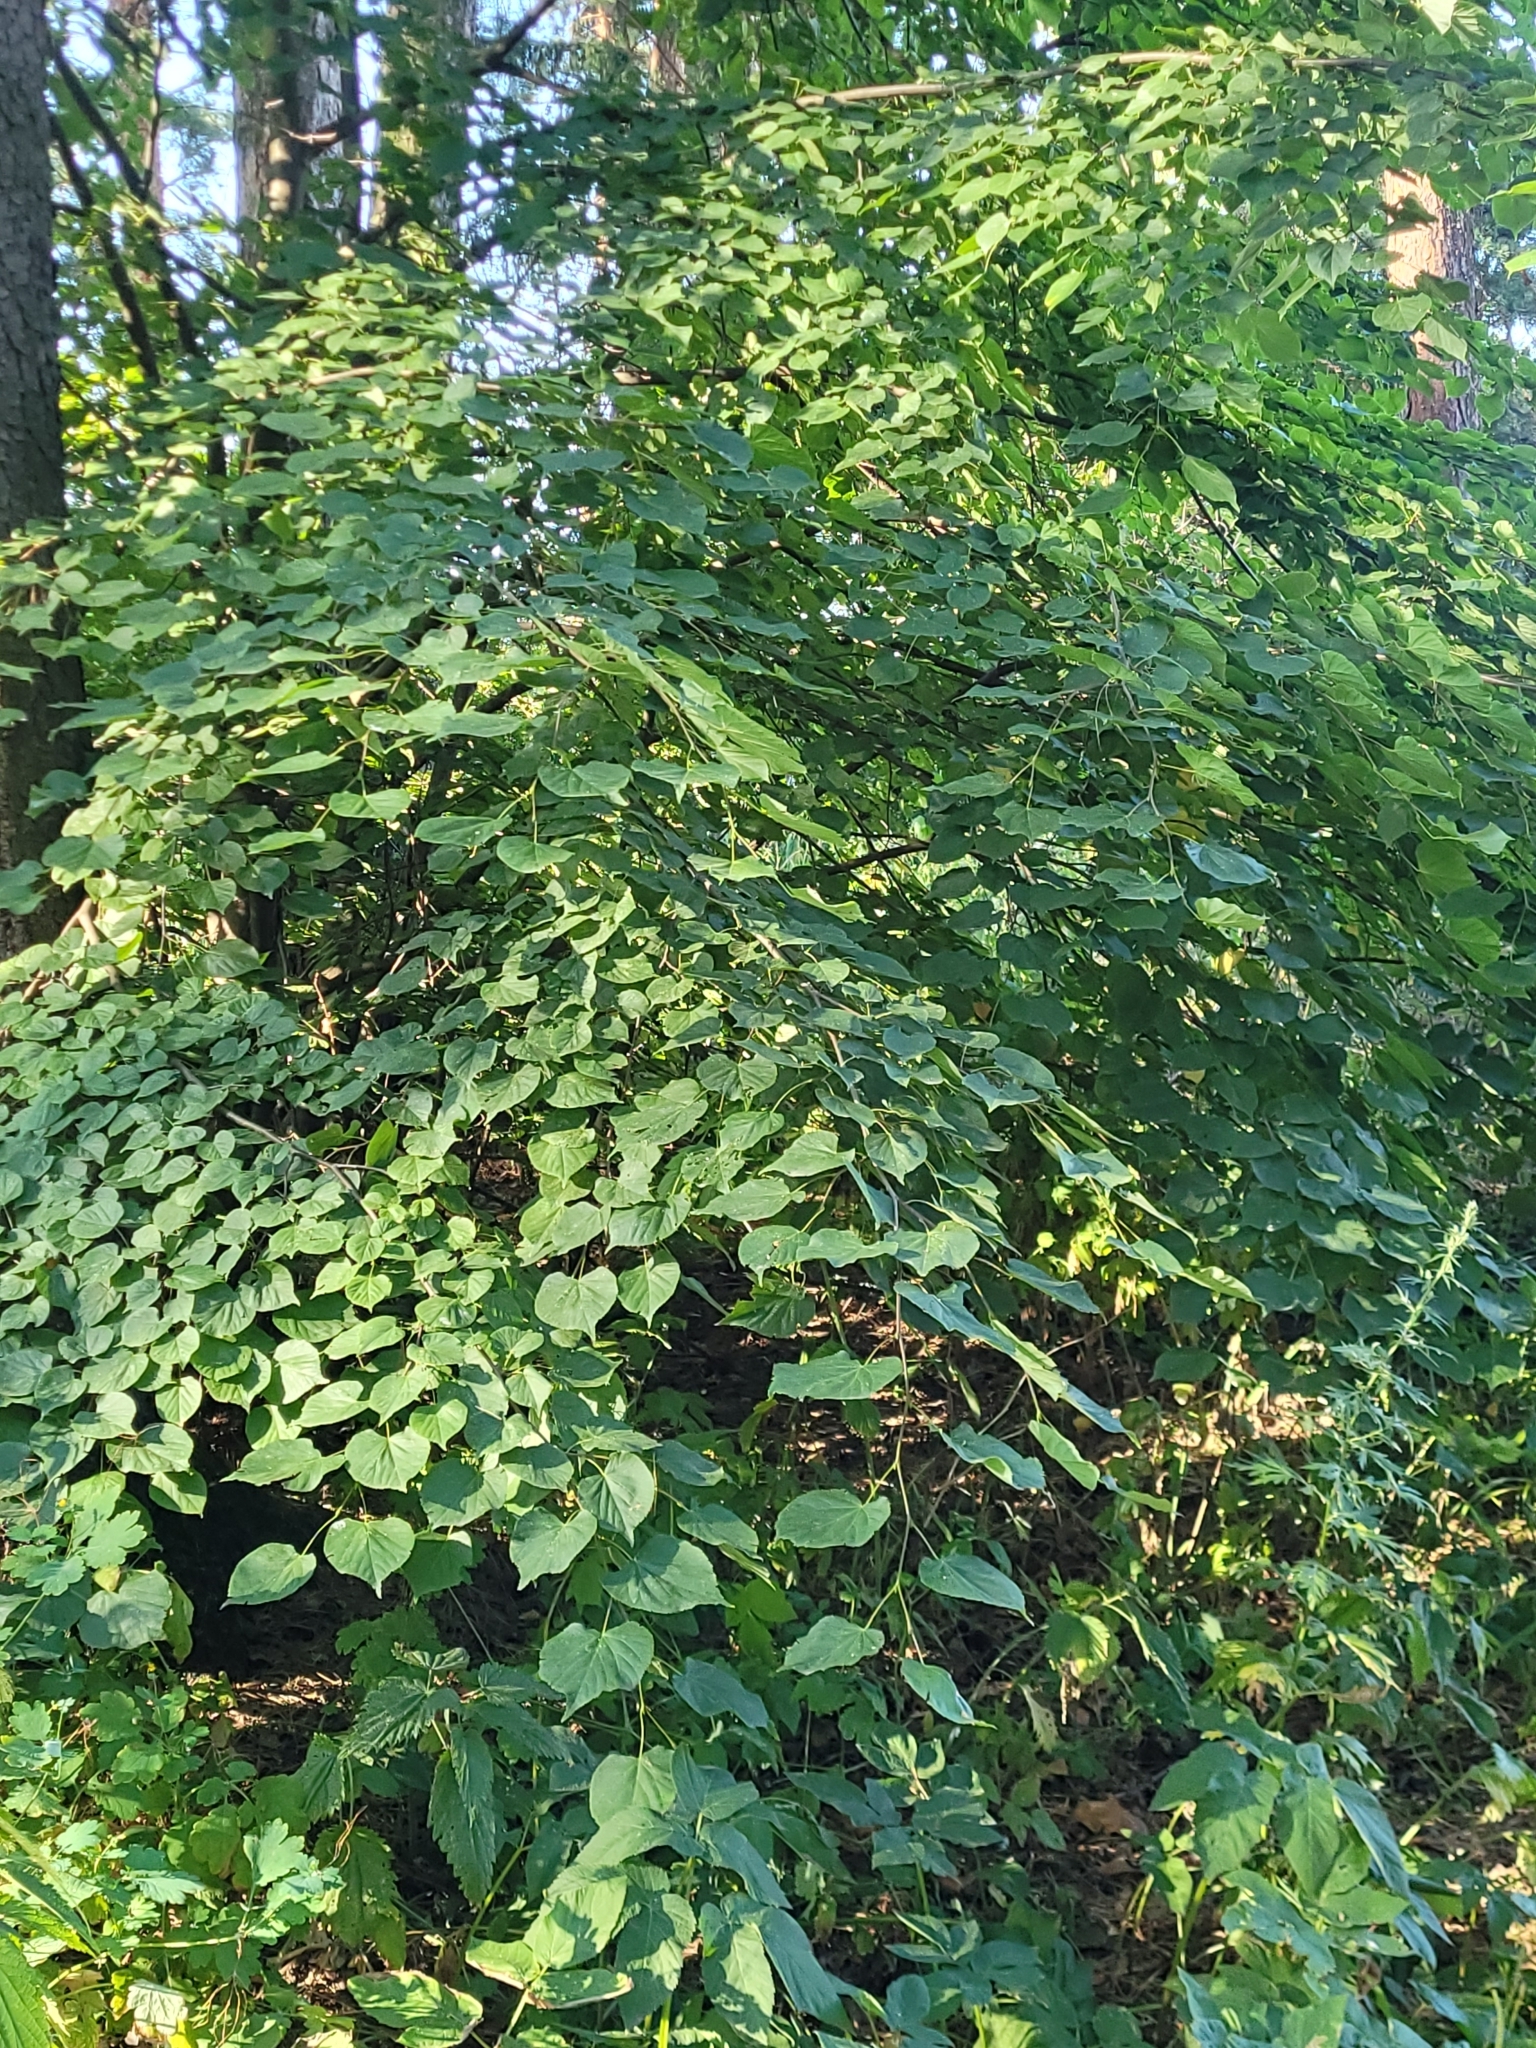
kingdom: Plantae
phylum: Tracheophyta
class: Magnoliopsida
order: Malvales
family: Malvaceae
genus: Tilia
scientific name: Tilia cordata
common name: Small-leaved lime
